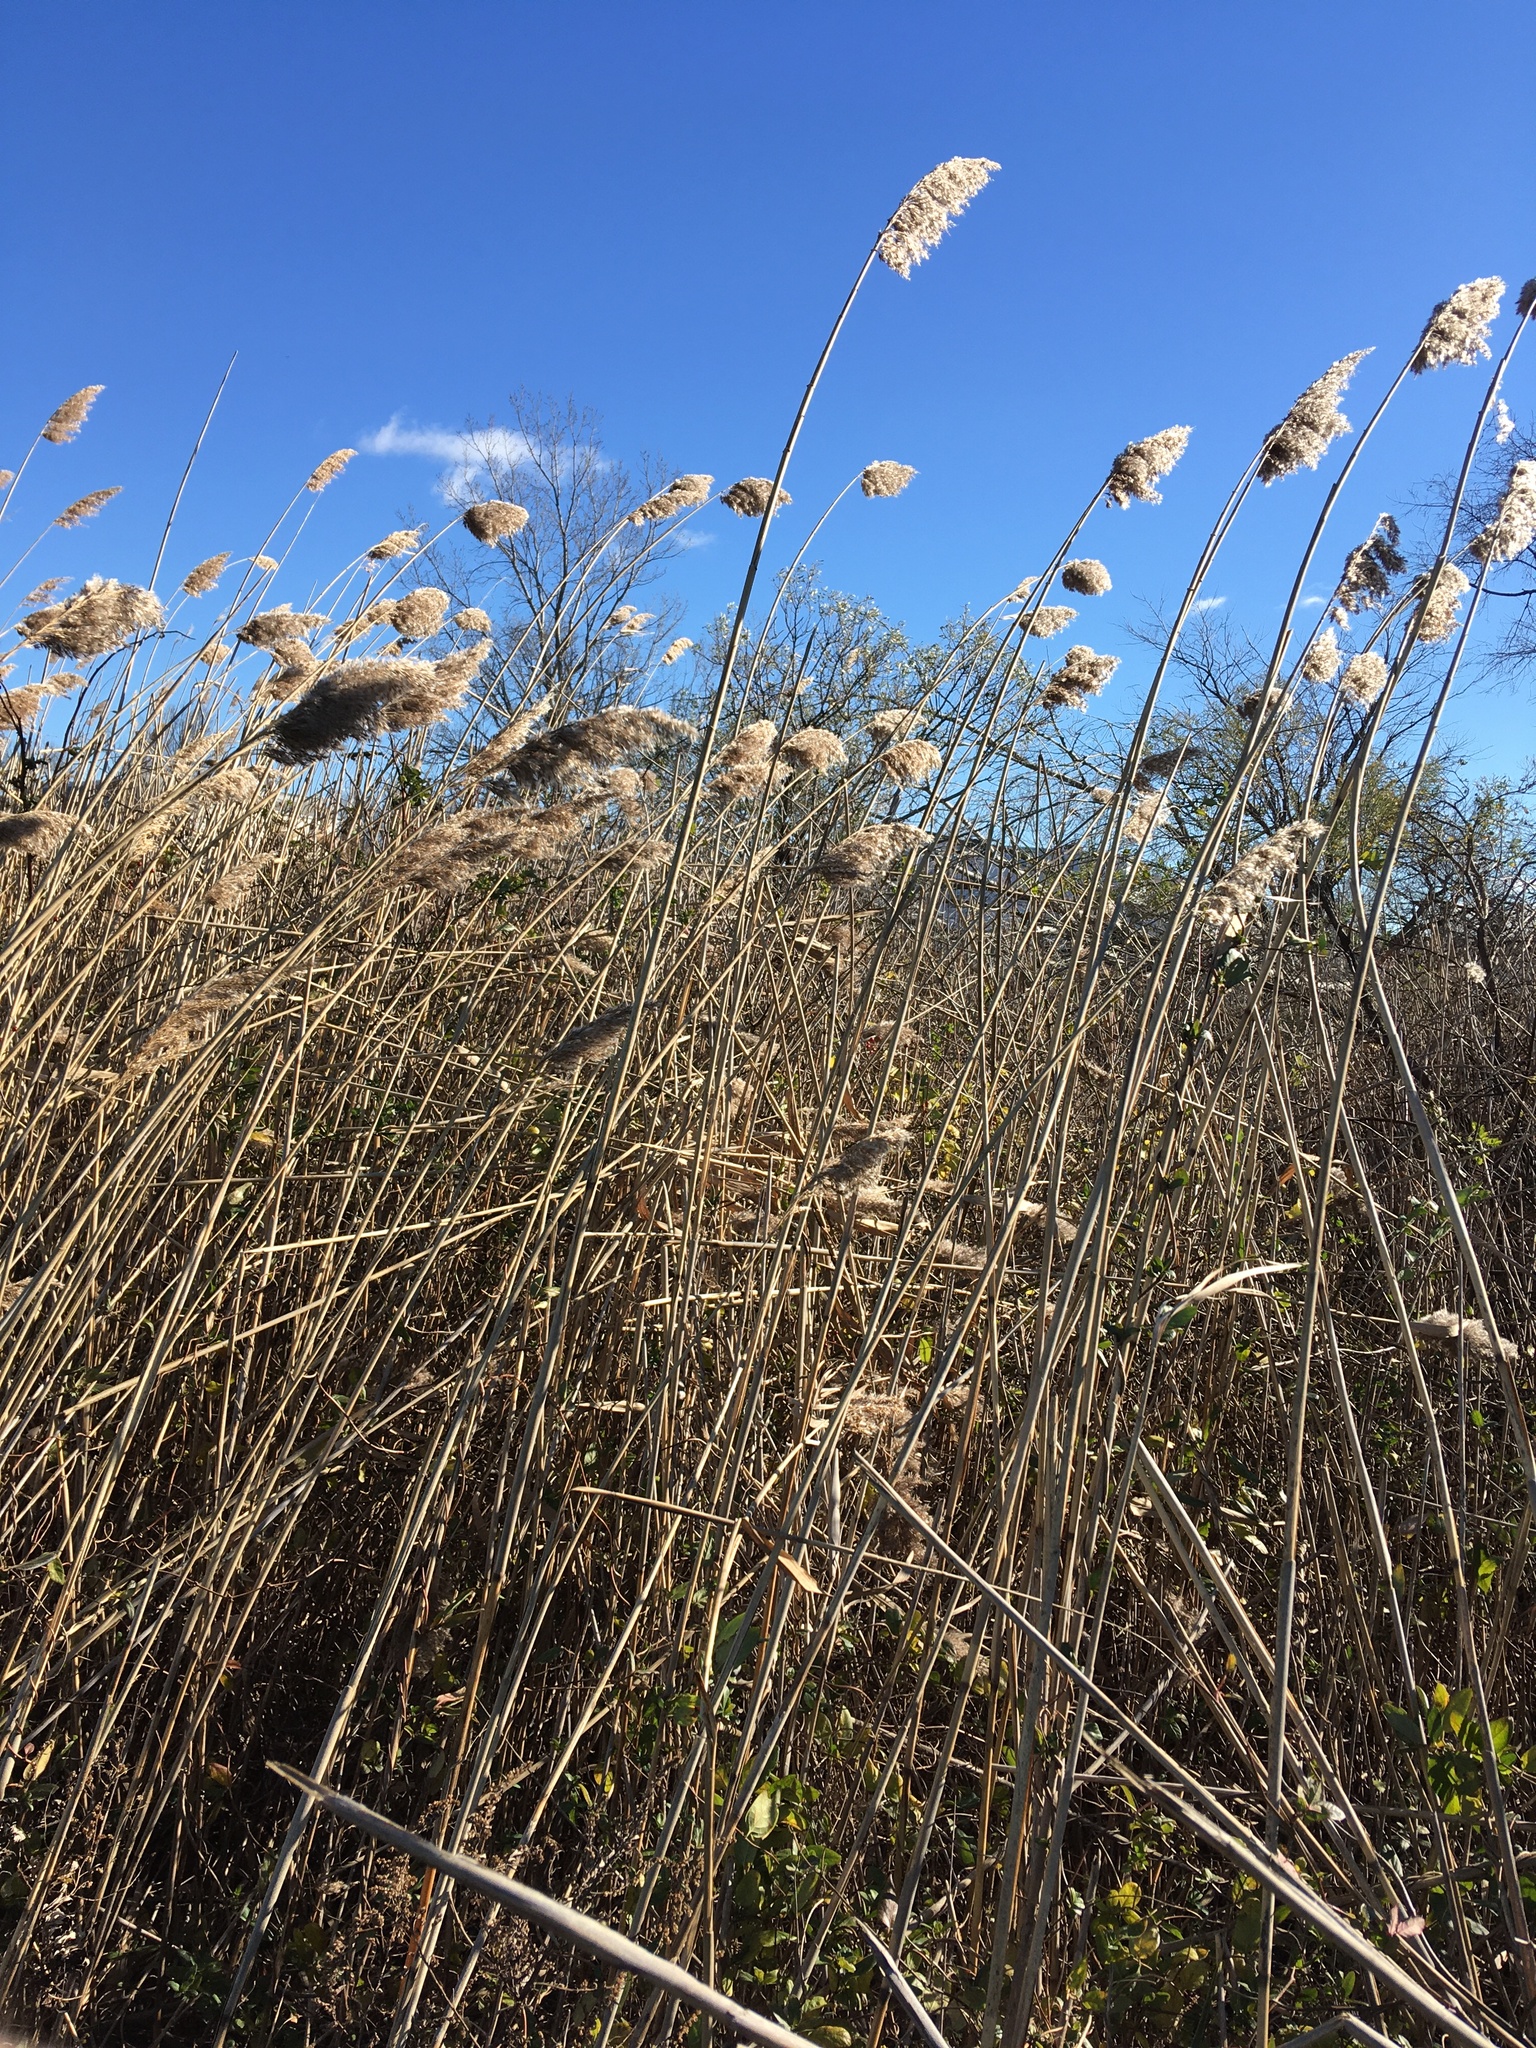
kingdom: Plantae
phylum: Tracheophyta
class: Liliopsida
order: Poales
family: Poaceae
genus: Phragmites
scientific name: Phragmites australis
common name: Common reed
